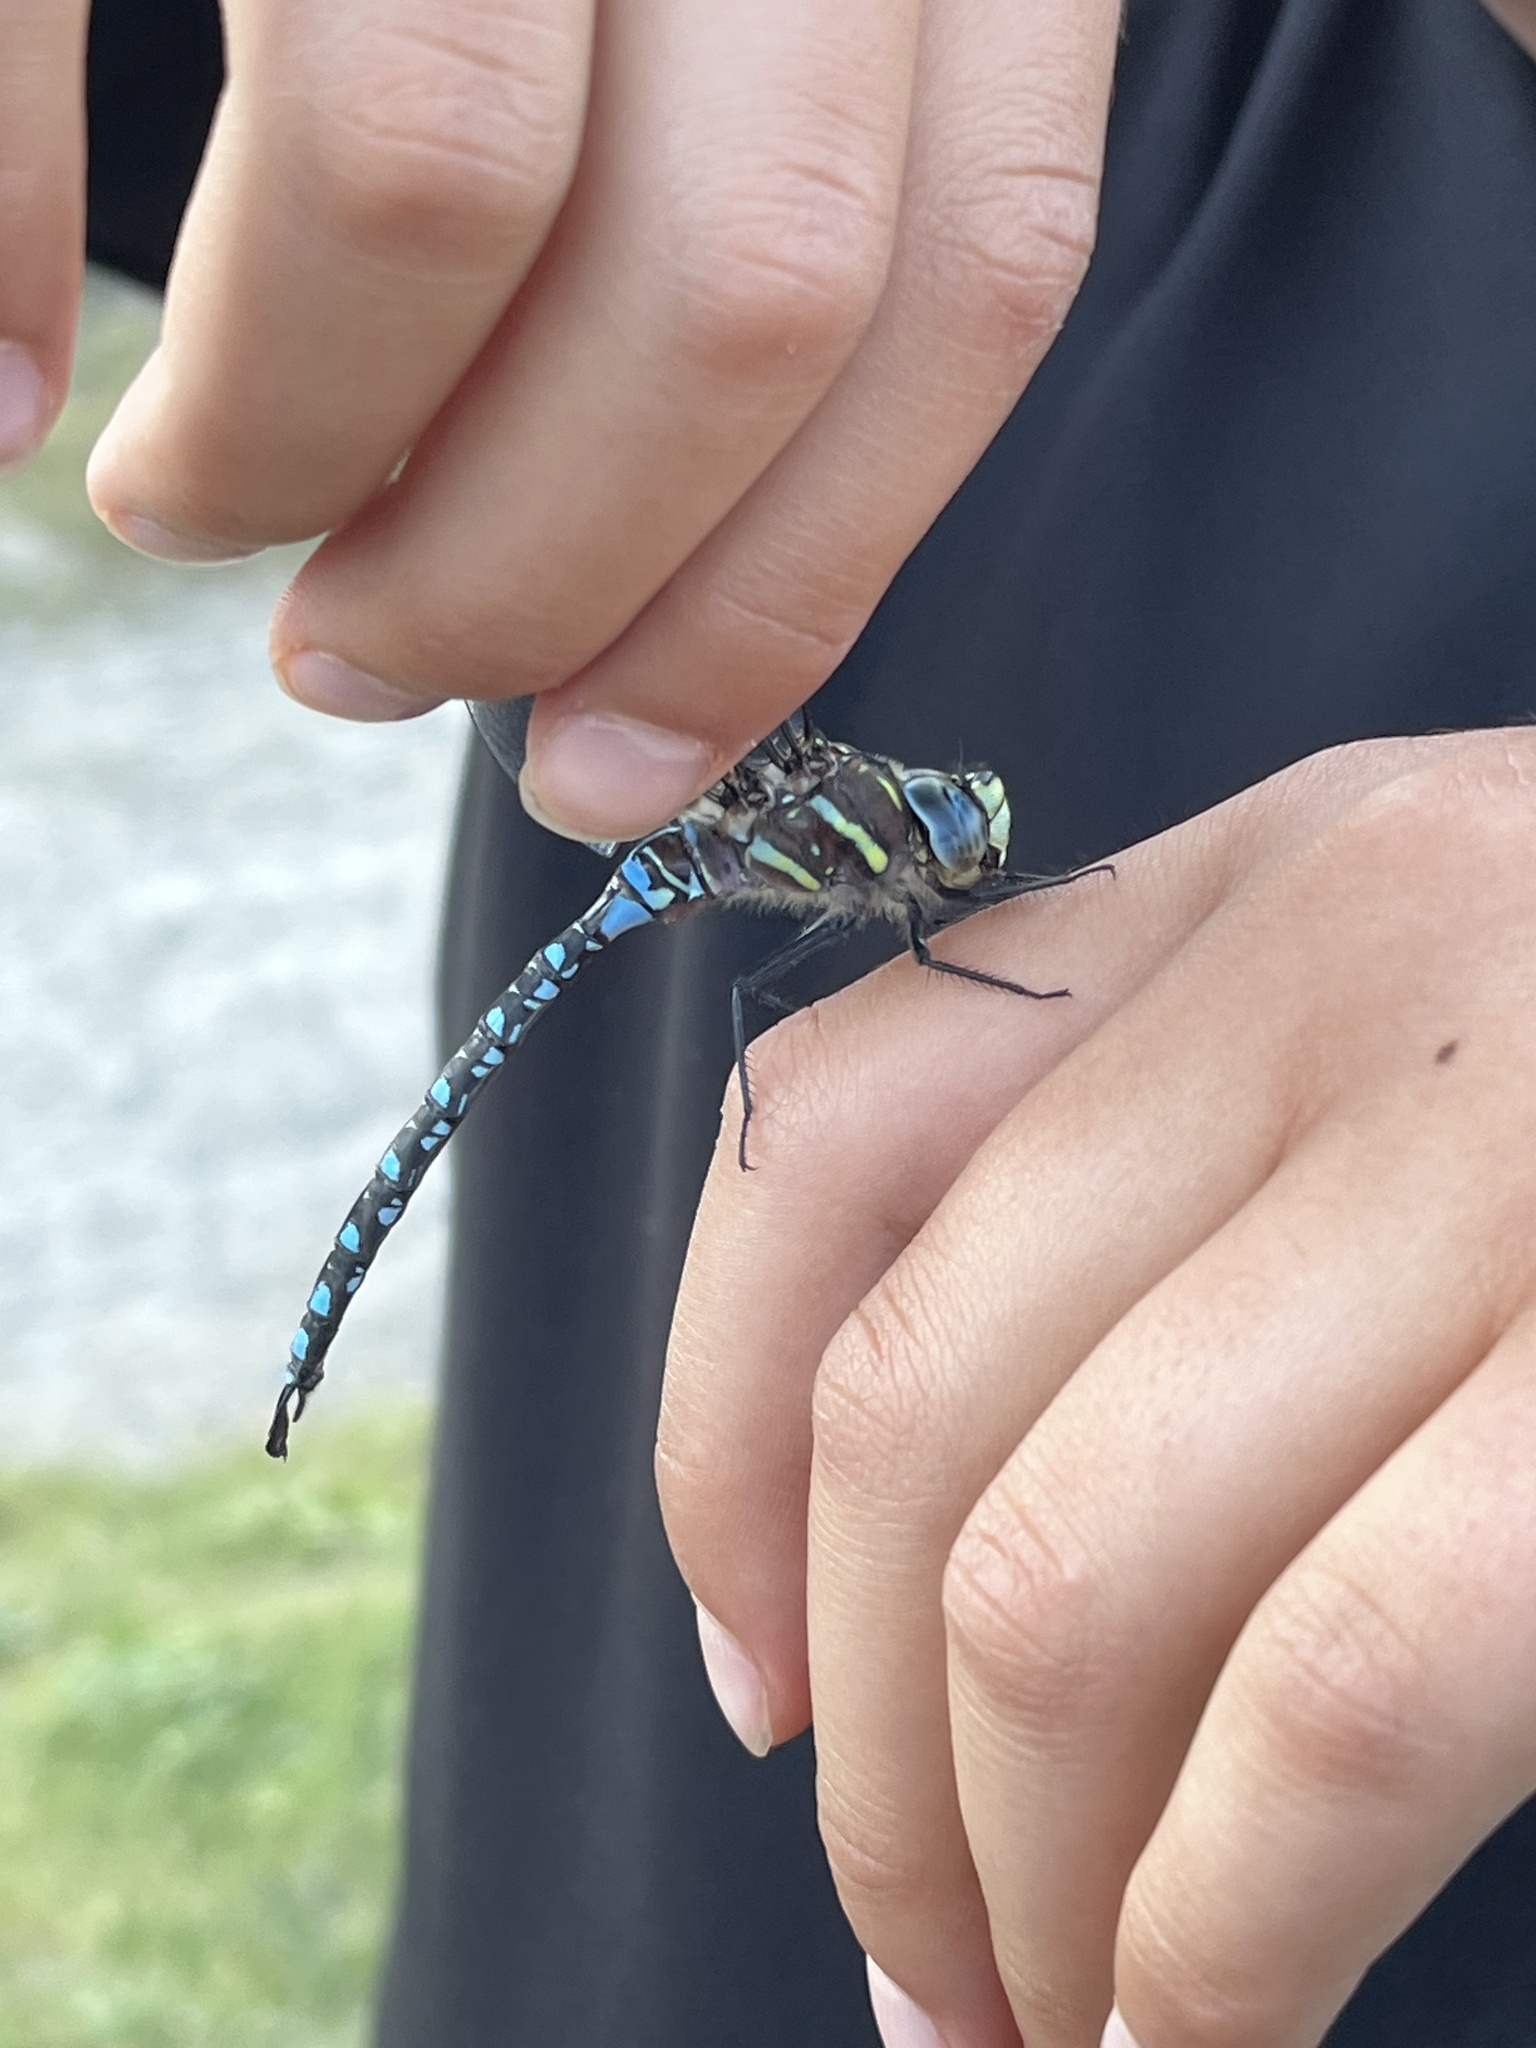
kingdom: Animalia
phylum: Arthropoda
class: Insecta
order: Odonata
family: Aeshnidae
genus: Aeshna
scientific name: Aeshna palmata
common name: Paddle-tailed darner
